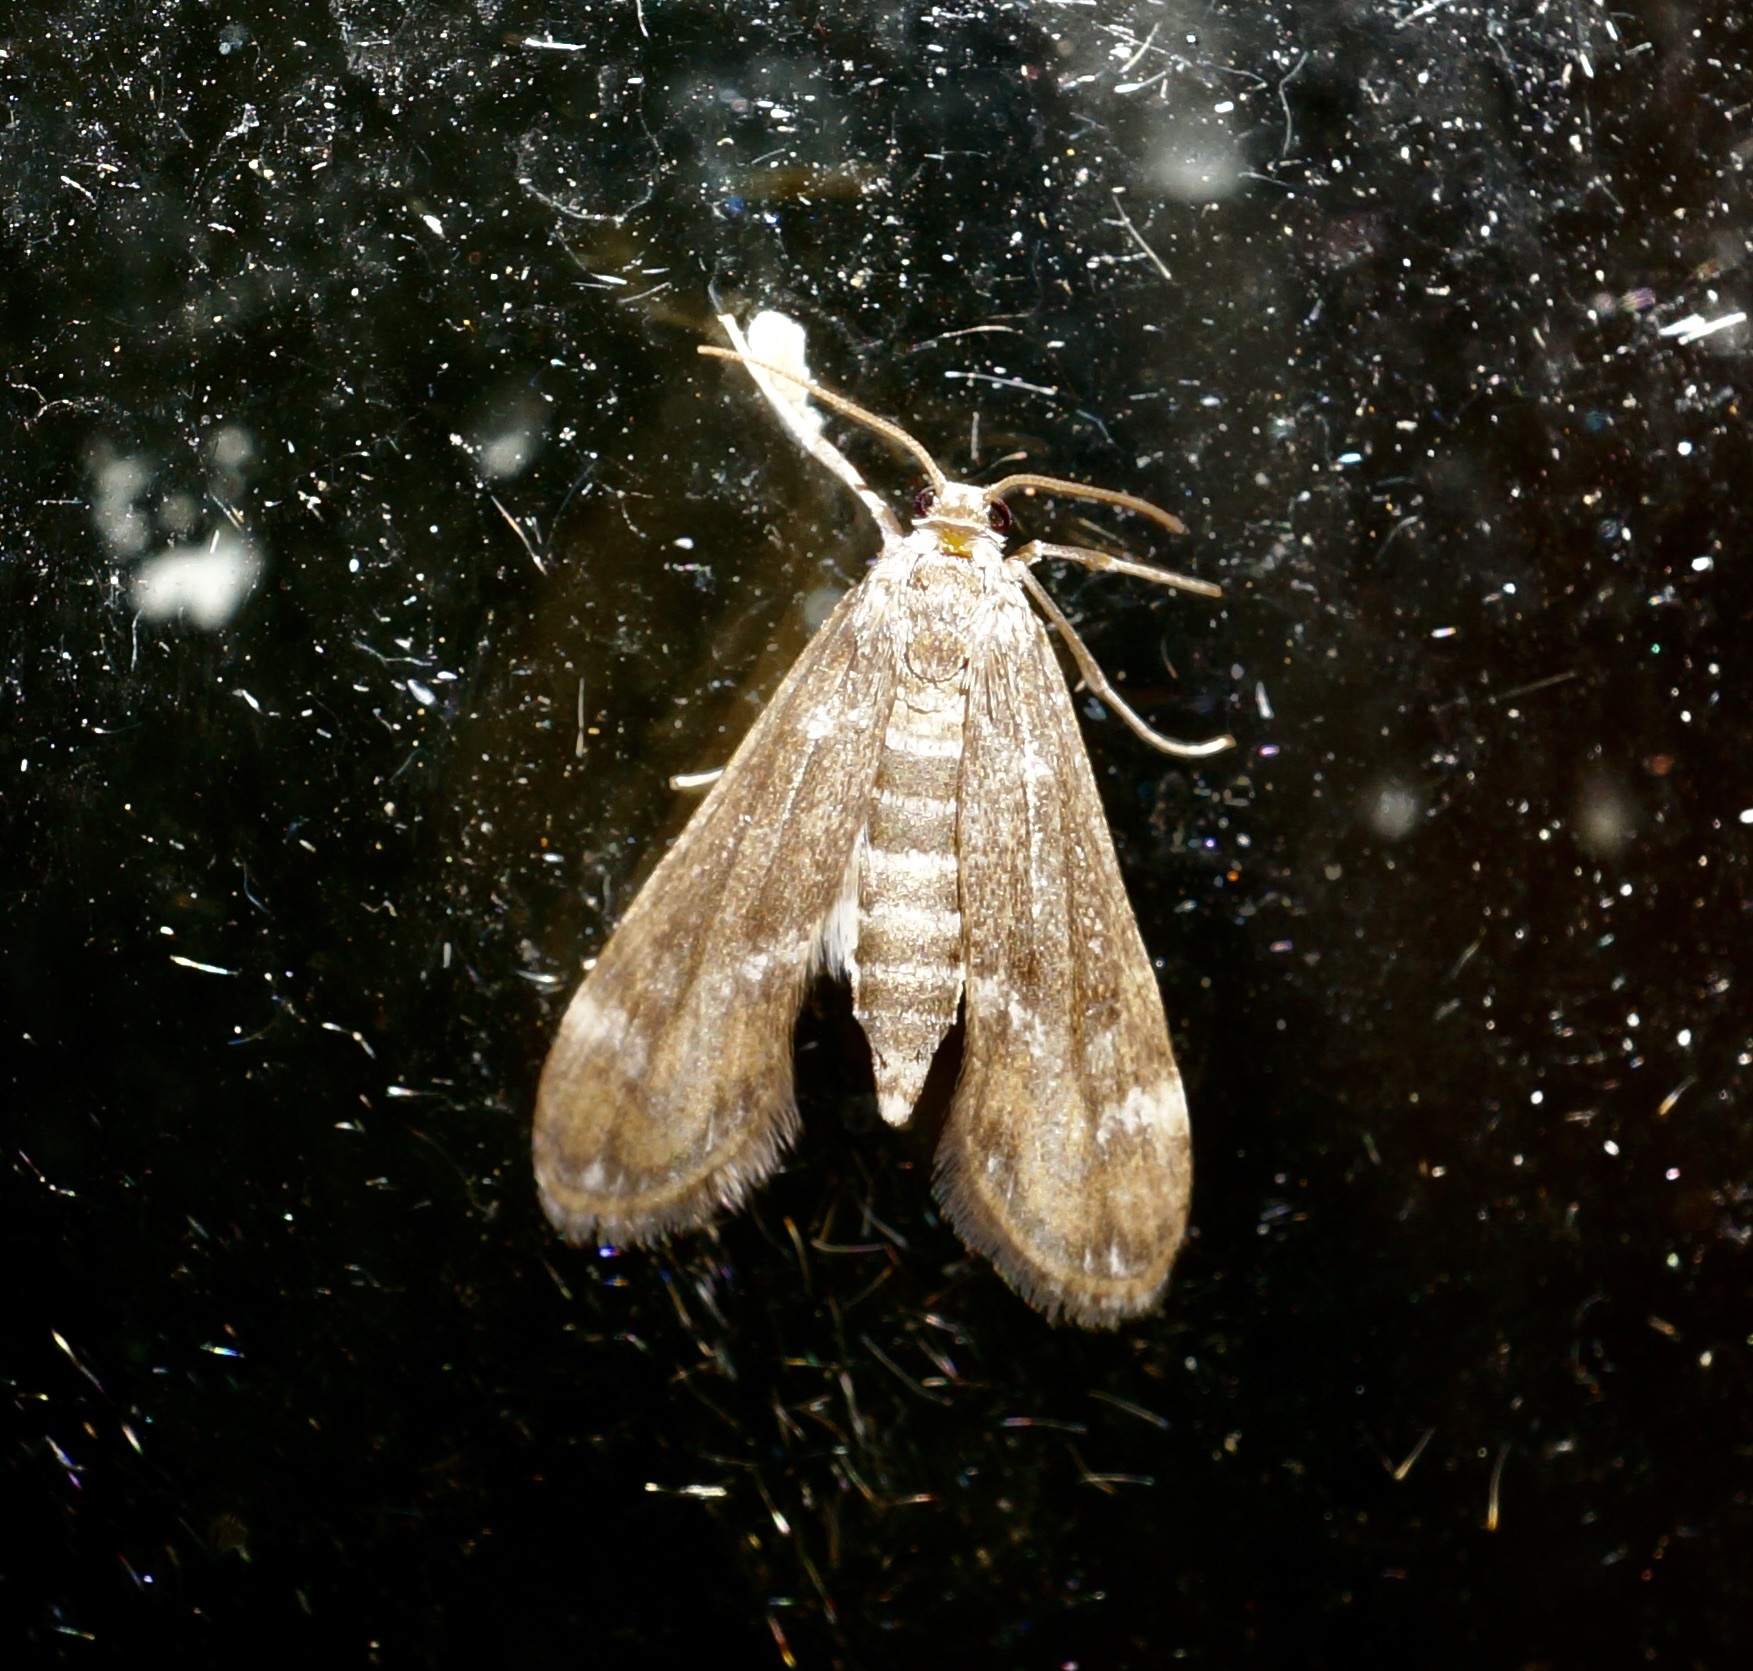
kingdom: Animalia
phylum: Arthropoda
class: Insecta
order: Lepidoptera
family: Crambidae
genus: Hygraula
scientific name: Hygraula nitens
